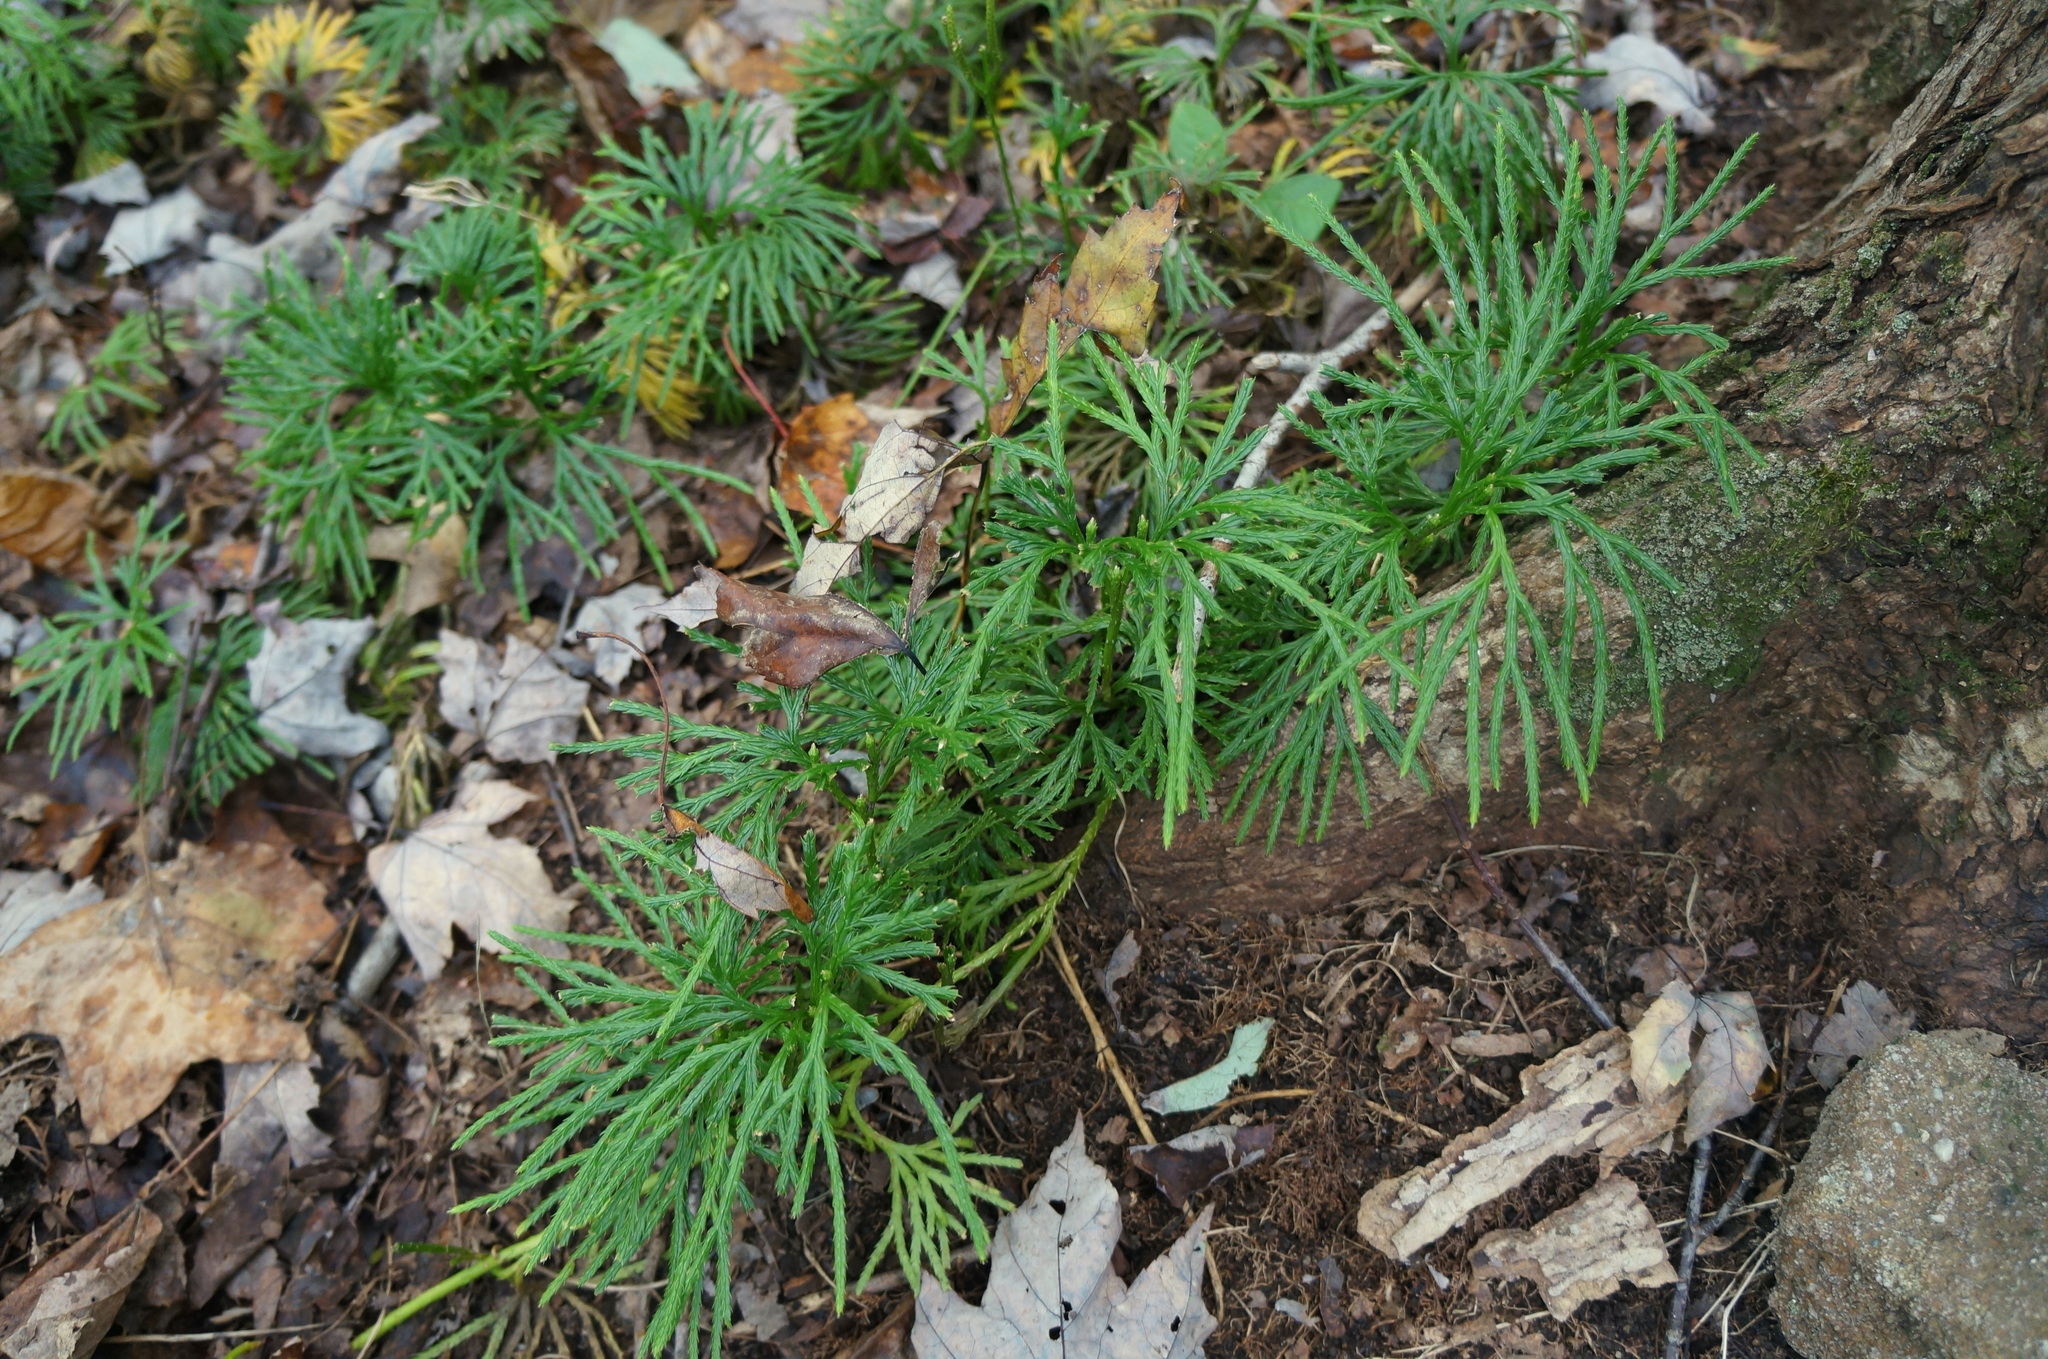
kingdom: Plantae
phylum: Tracheophyta
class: Lycopodiopsida
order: Lycopodiales
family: Lycopodiaceae
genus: Diphasiastrum
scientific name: Diphasiastrum digitatum
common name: Southern running-pine
